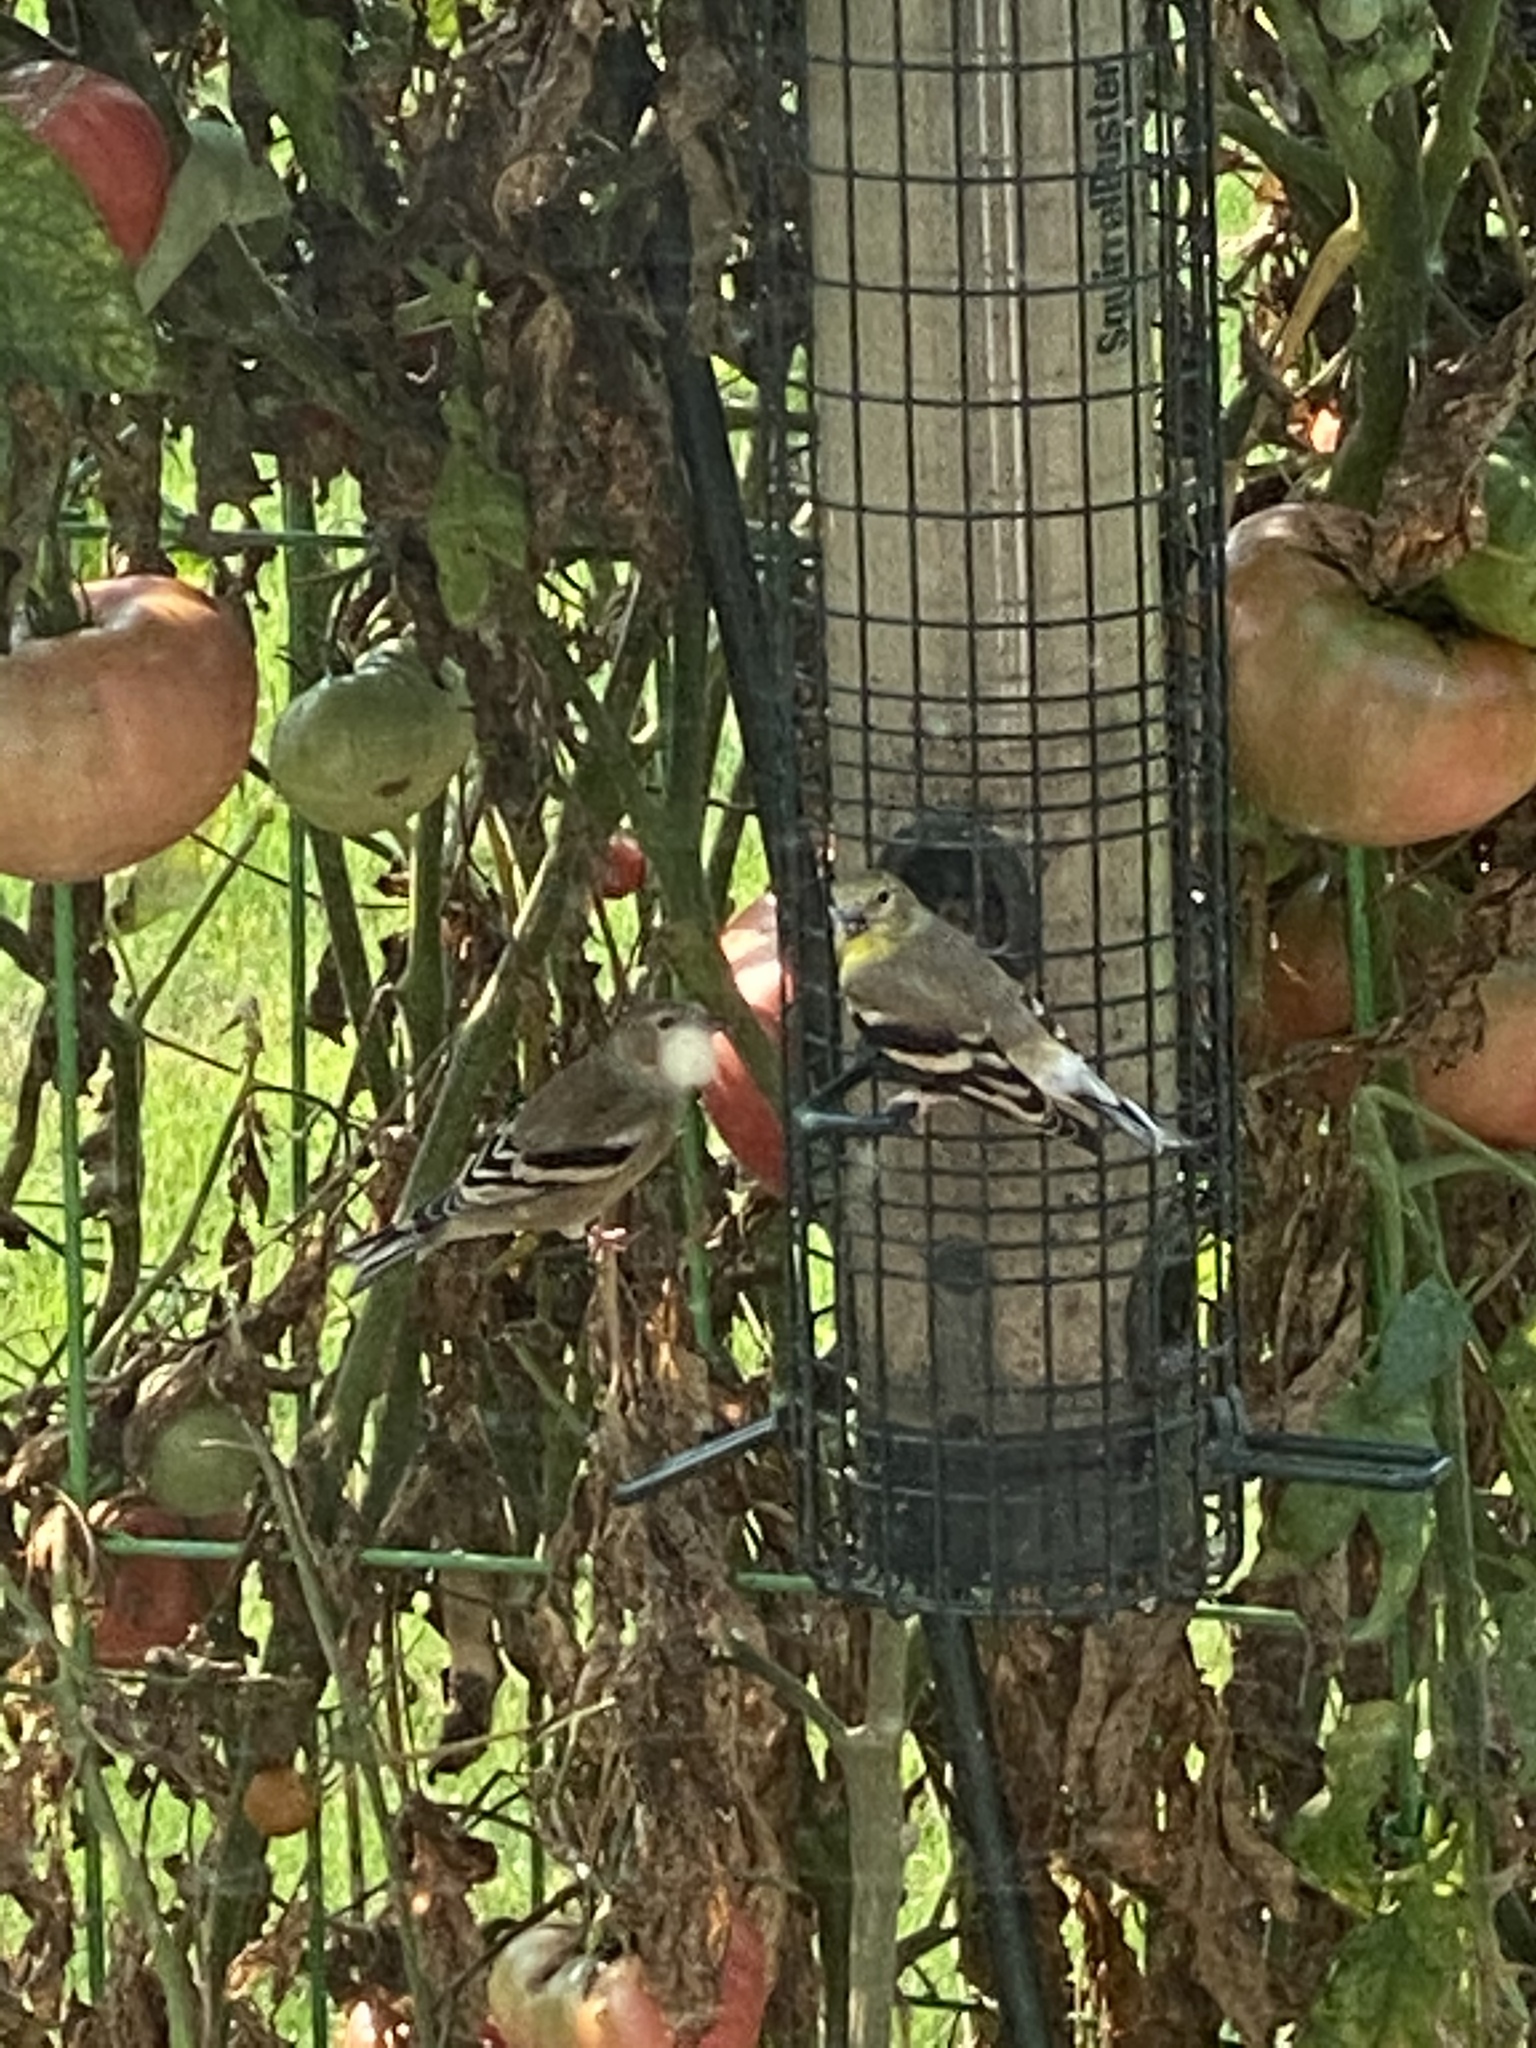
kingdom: Animalia
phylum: Chordata
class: Aves
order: Passeriformes
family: Fringillidae
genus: Spinus
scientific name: Spinus tristis
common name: American goldfinch
